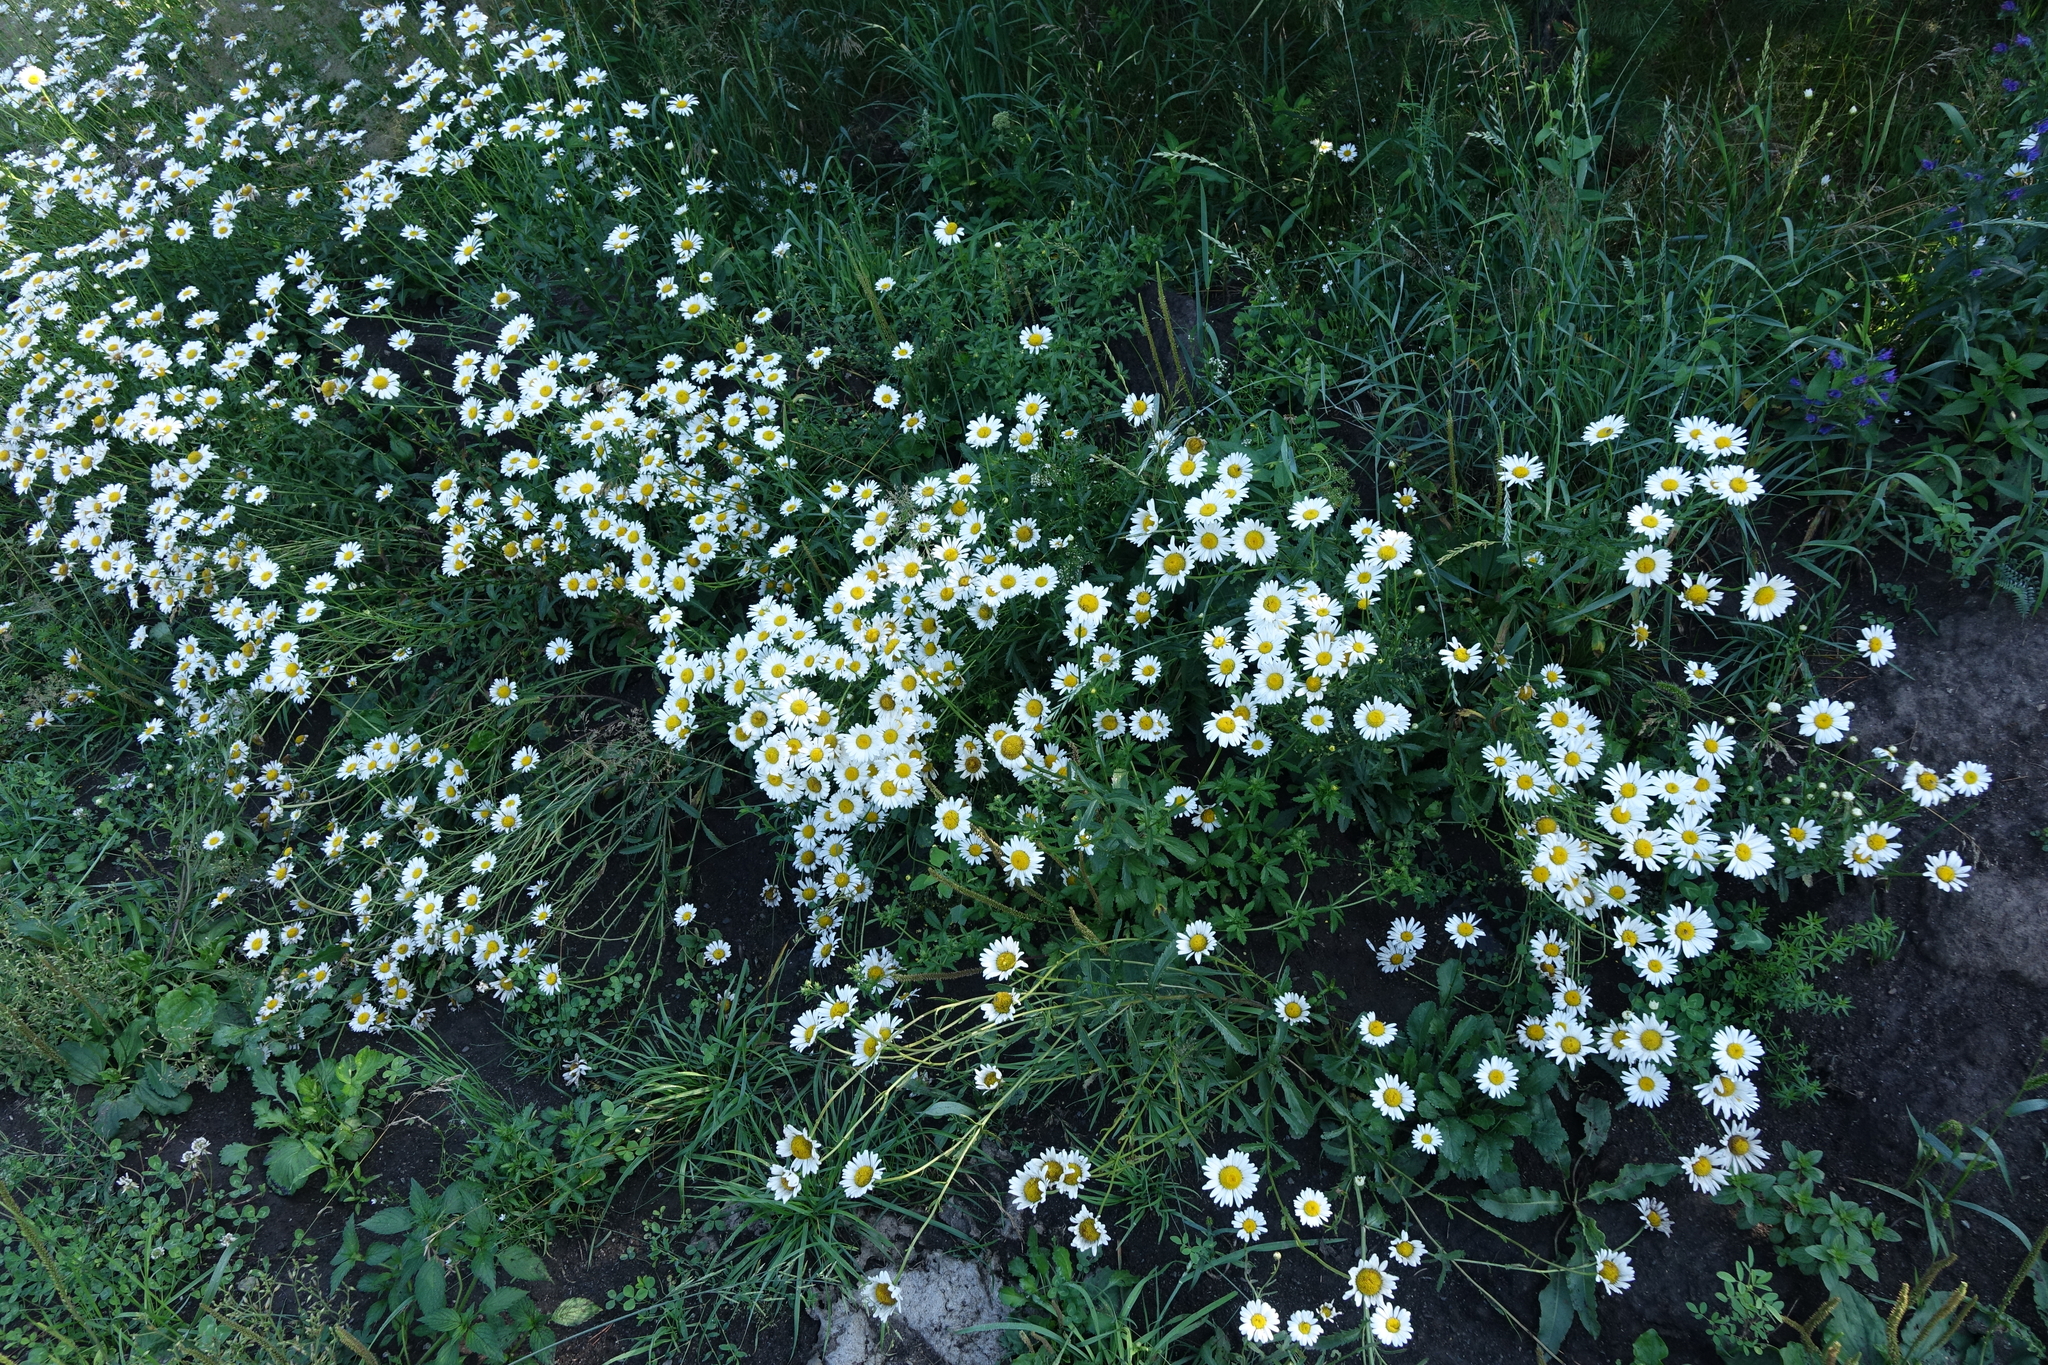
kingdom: Plantae
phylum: Tracheophyta
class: Magnoliopsida
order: Asterales
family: Asteraceae
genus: Tripleurospermum
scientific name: Tripleurospermum inodorum
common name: Scentless mayweed
